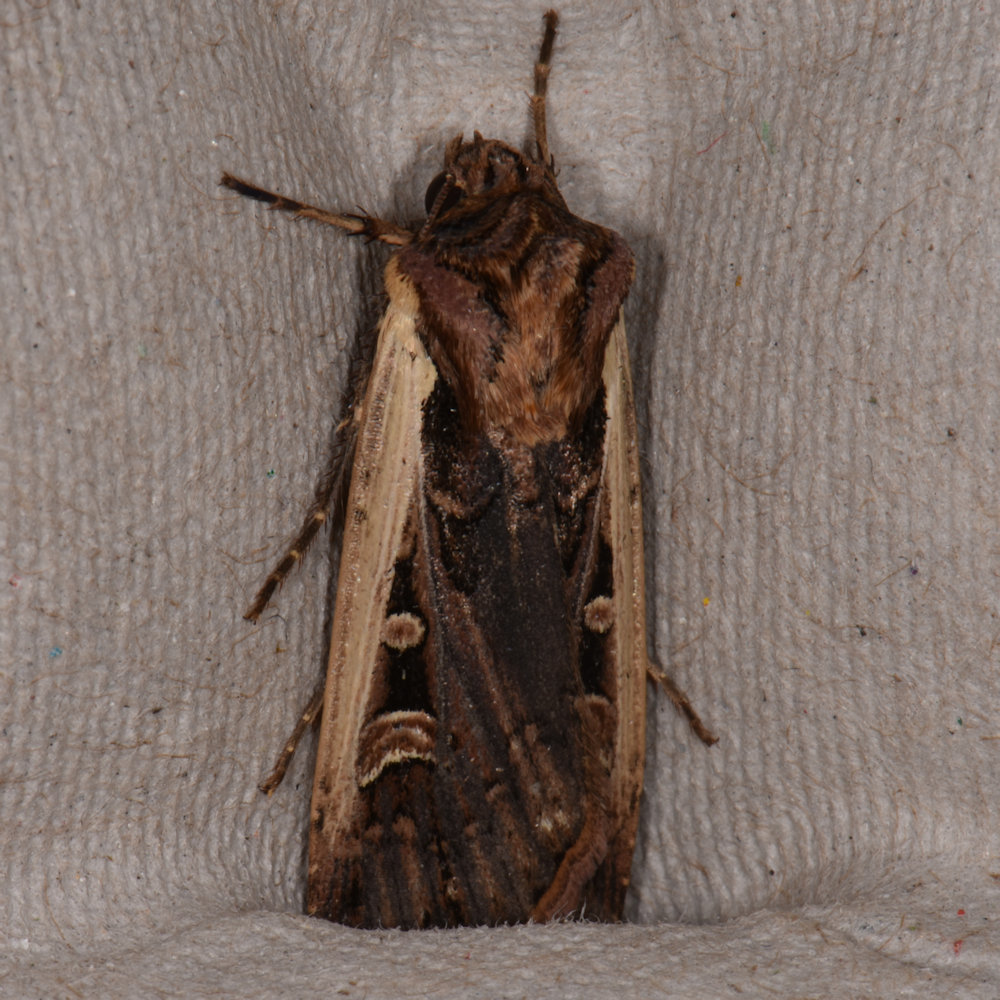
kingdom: Animalia
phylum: Arthropoda
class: Insecta
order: Lepidoptera
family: Noctuidae
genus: Striacosta
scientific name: Striacosta albicosta
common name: Western bean cutworm moth
